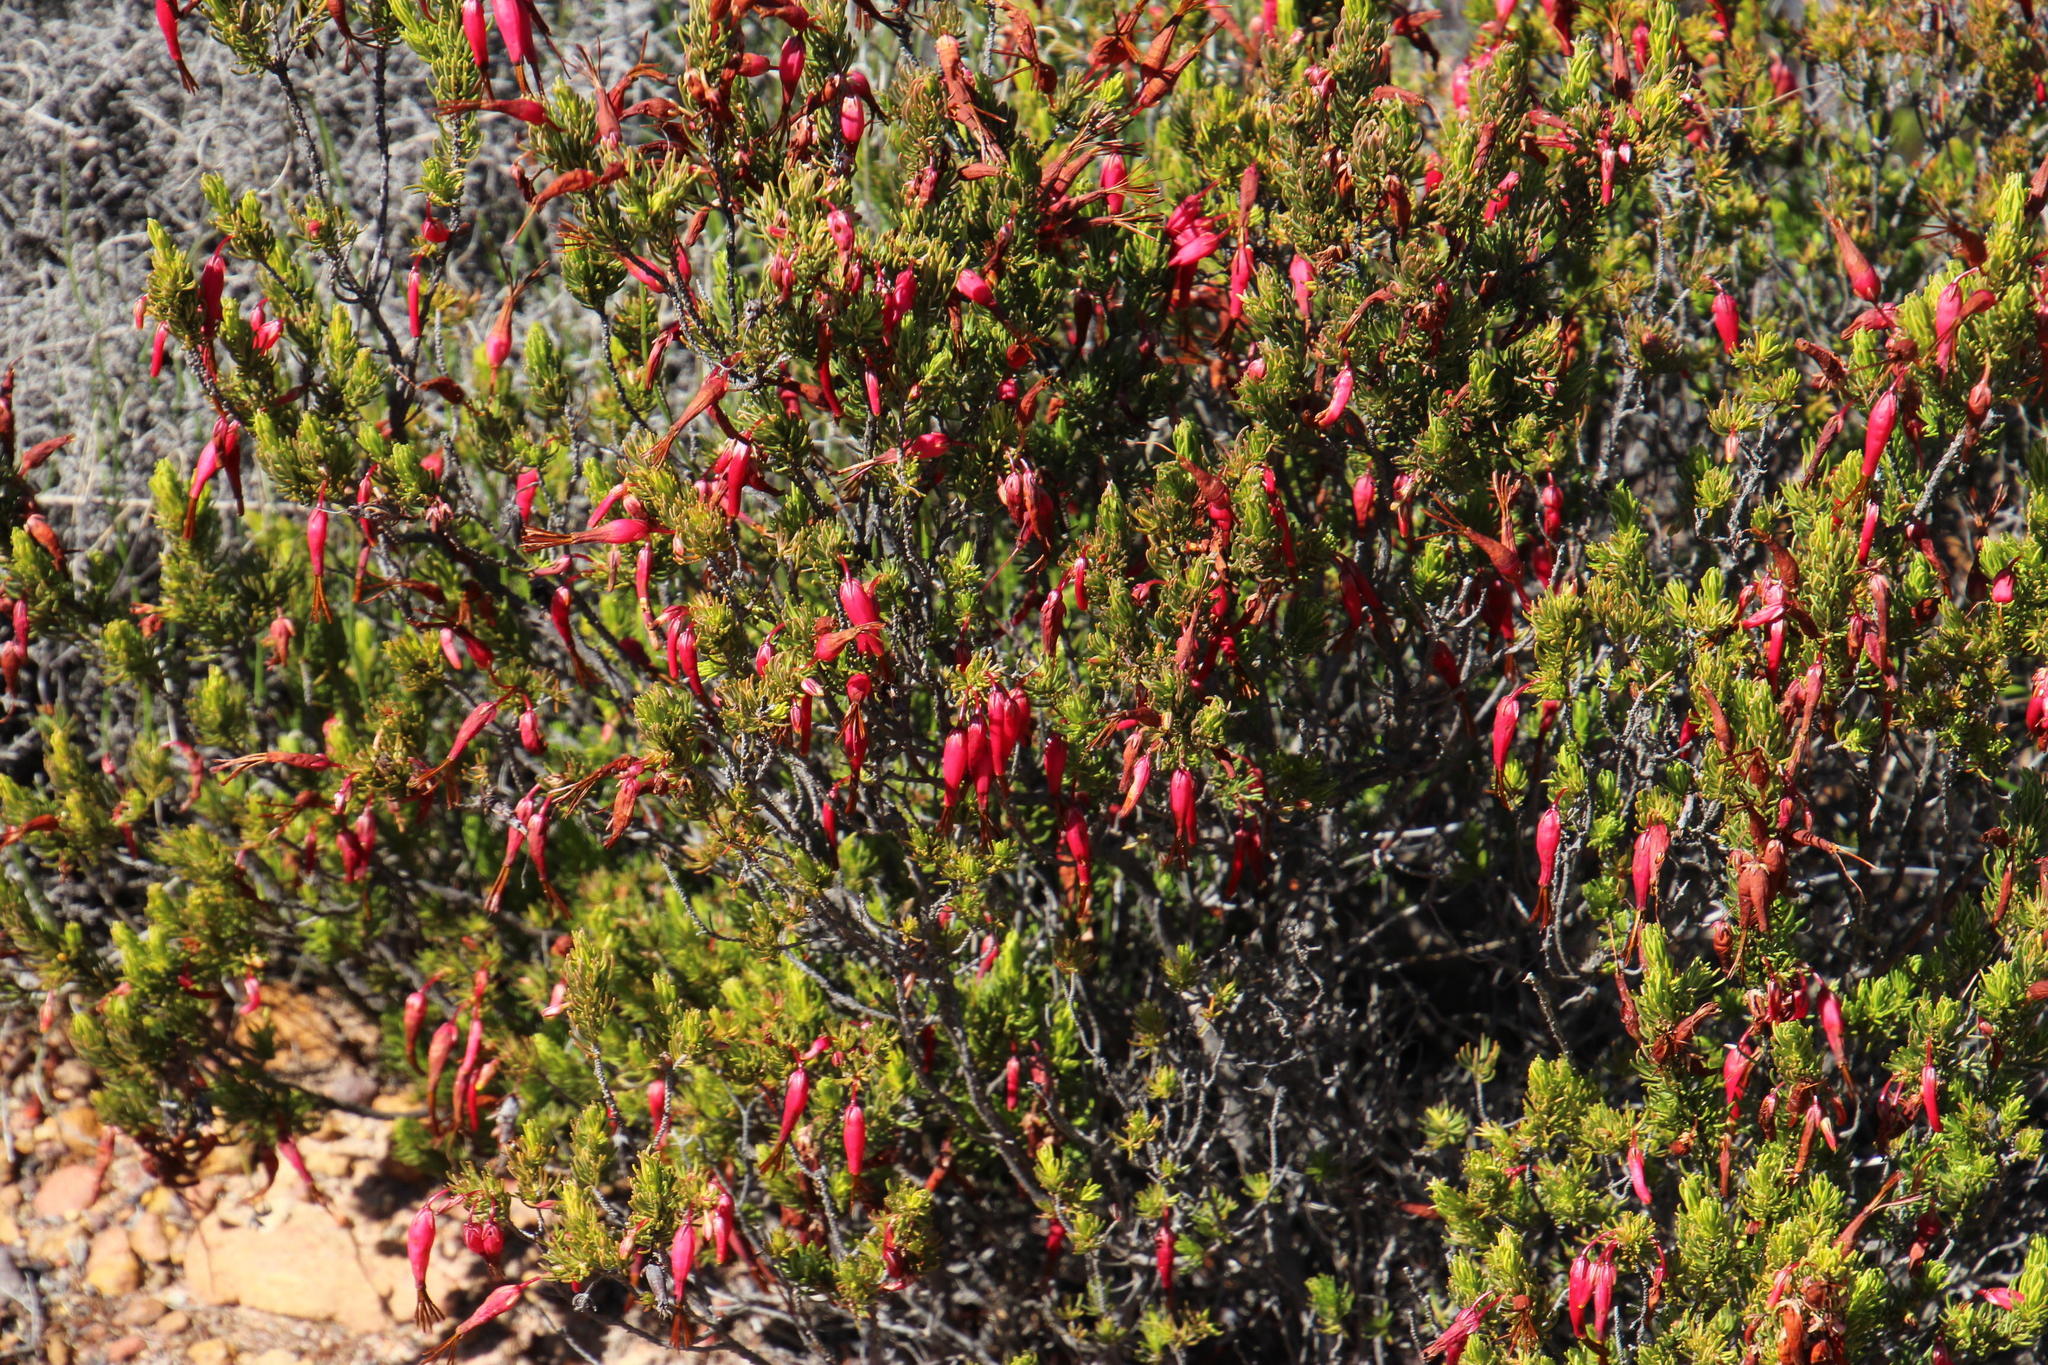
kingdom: Plantae
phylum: Tracheophyta
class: Magnoliopsida
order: Ericales
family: Ericaceae
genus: Erica
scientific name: Erica plukenetii
